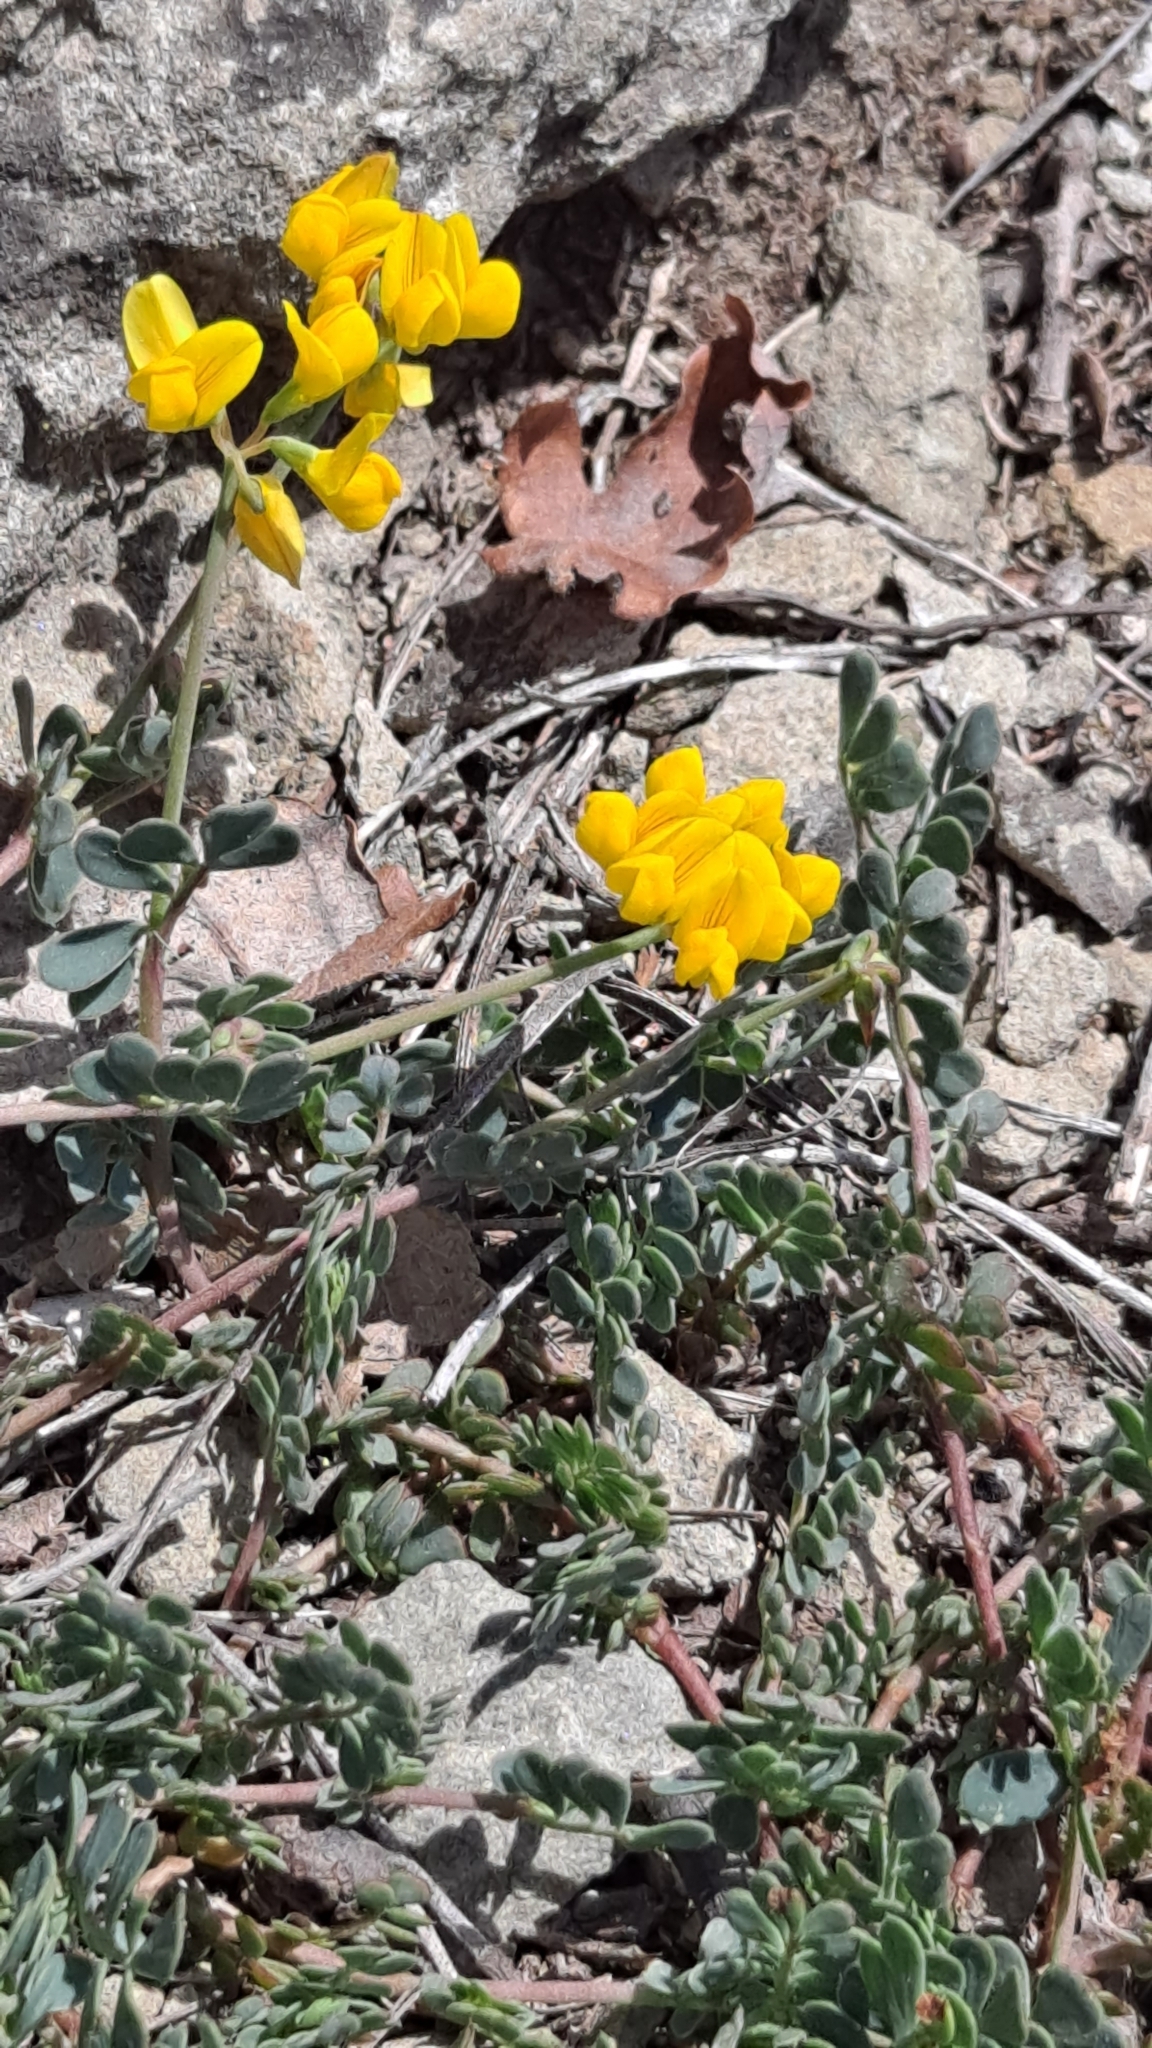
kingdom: Plantae
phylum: Tracheophyta
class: Magnoliopsida
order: Fabales
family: Fabaceae
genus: Coronilla
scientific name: Coronilla minima
